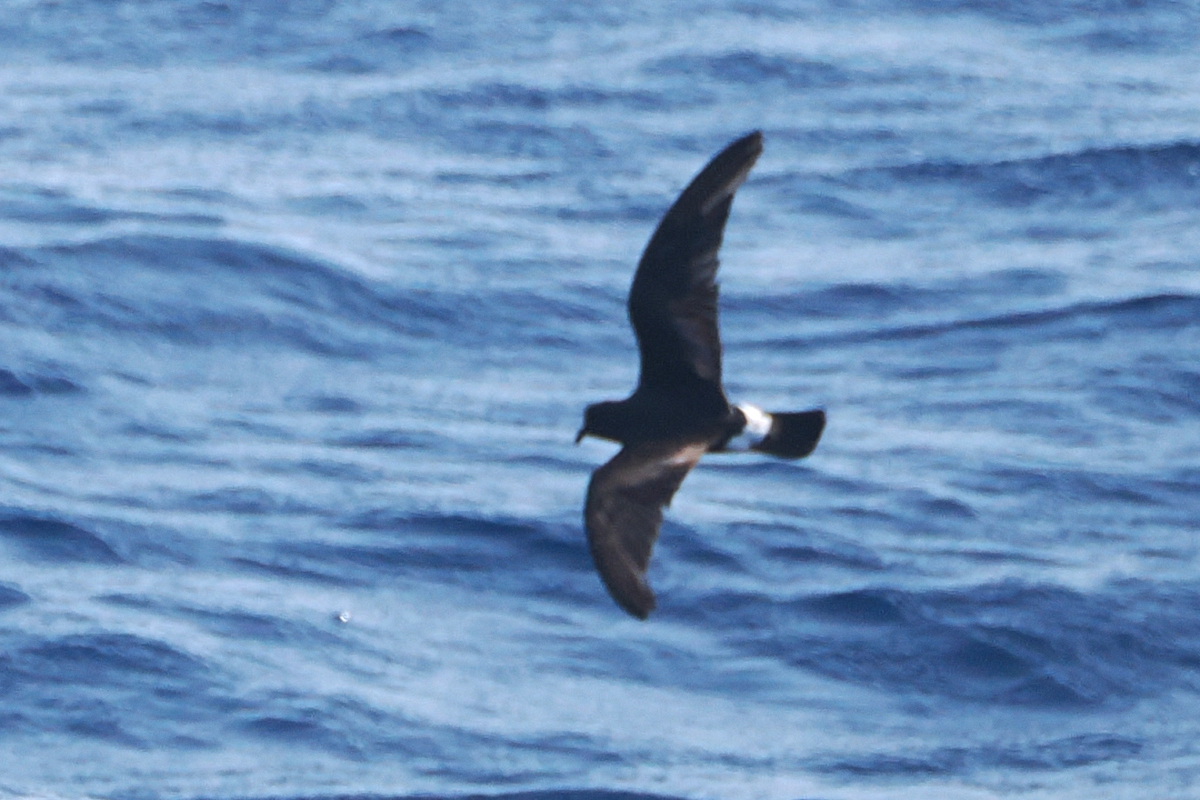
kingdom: Animalia
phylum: Chordata
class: Aves
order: Procellariiformes
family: Hydrobatidae
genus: Oceanodroma
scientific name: Oceanodroma castro
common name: Band-rumped storm-petrel
